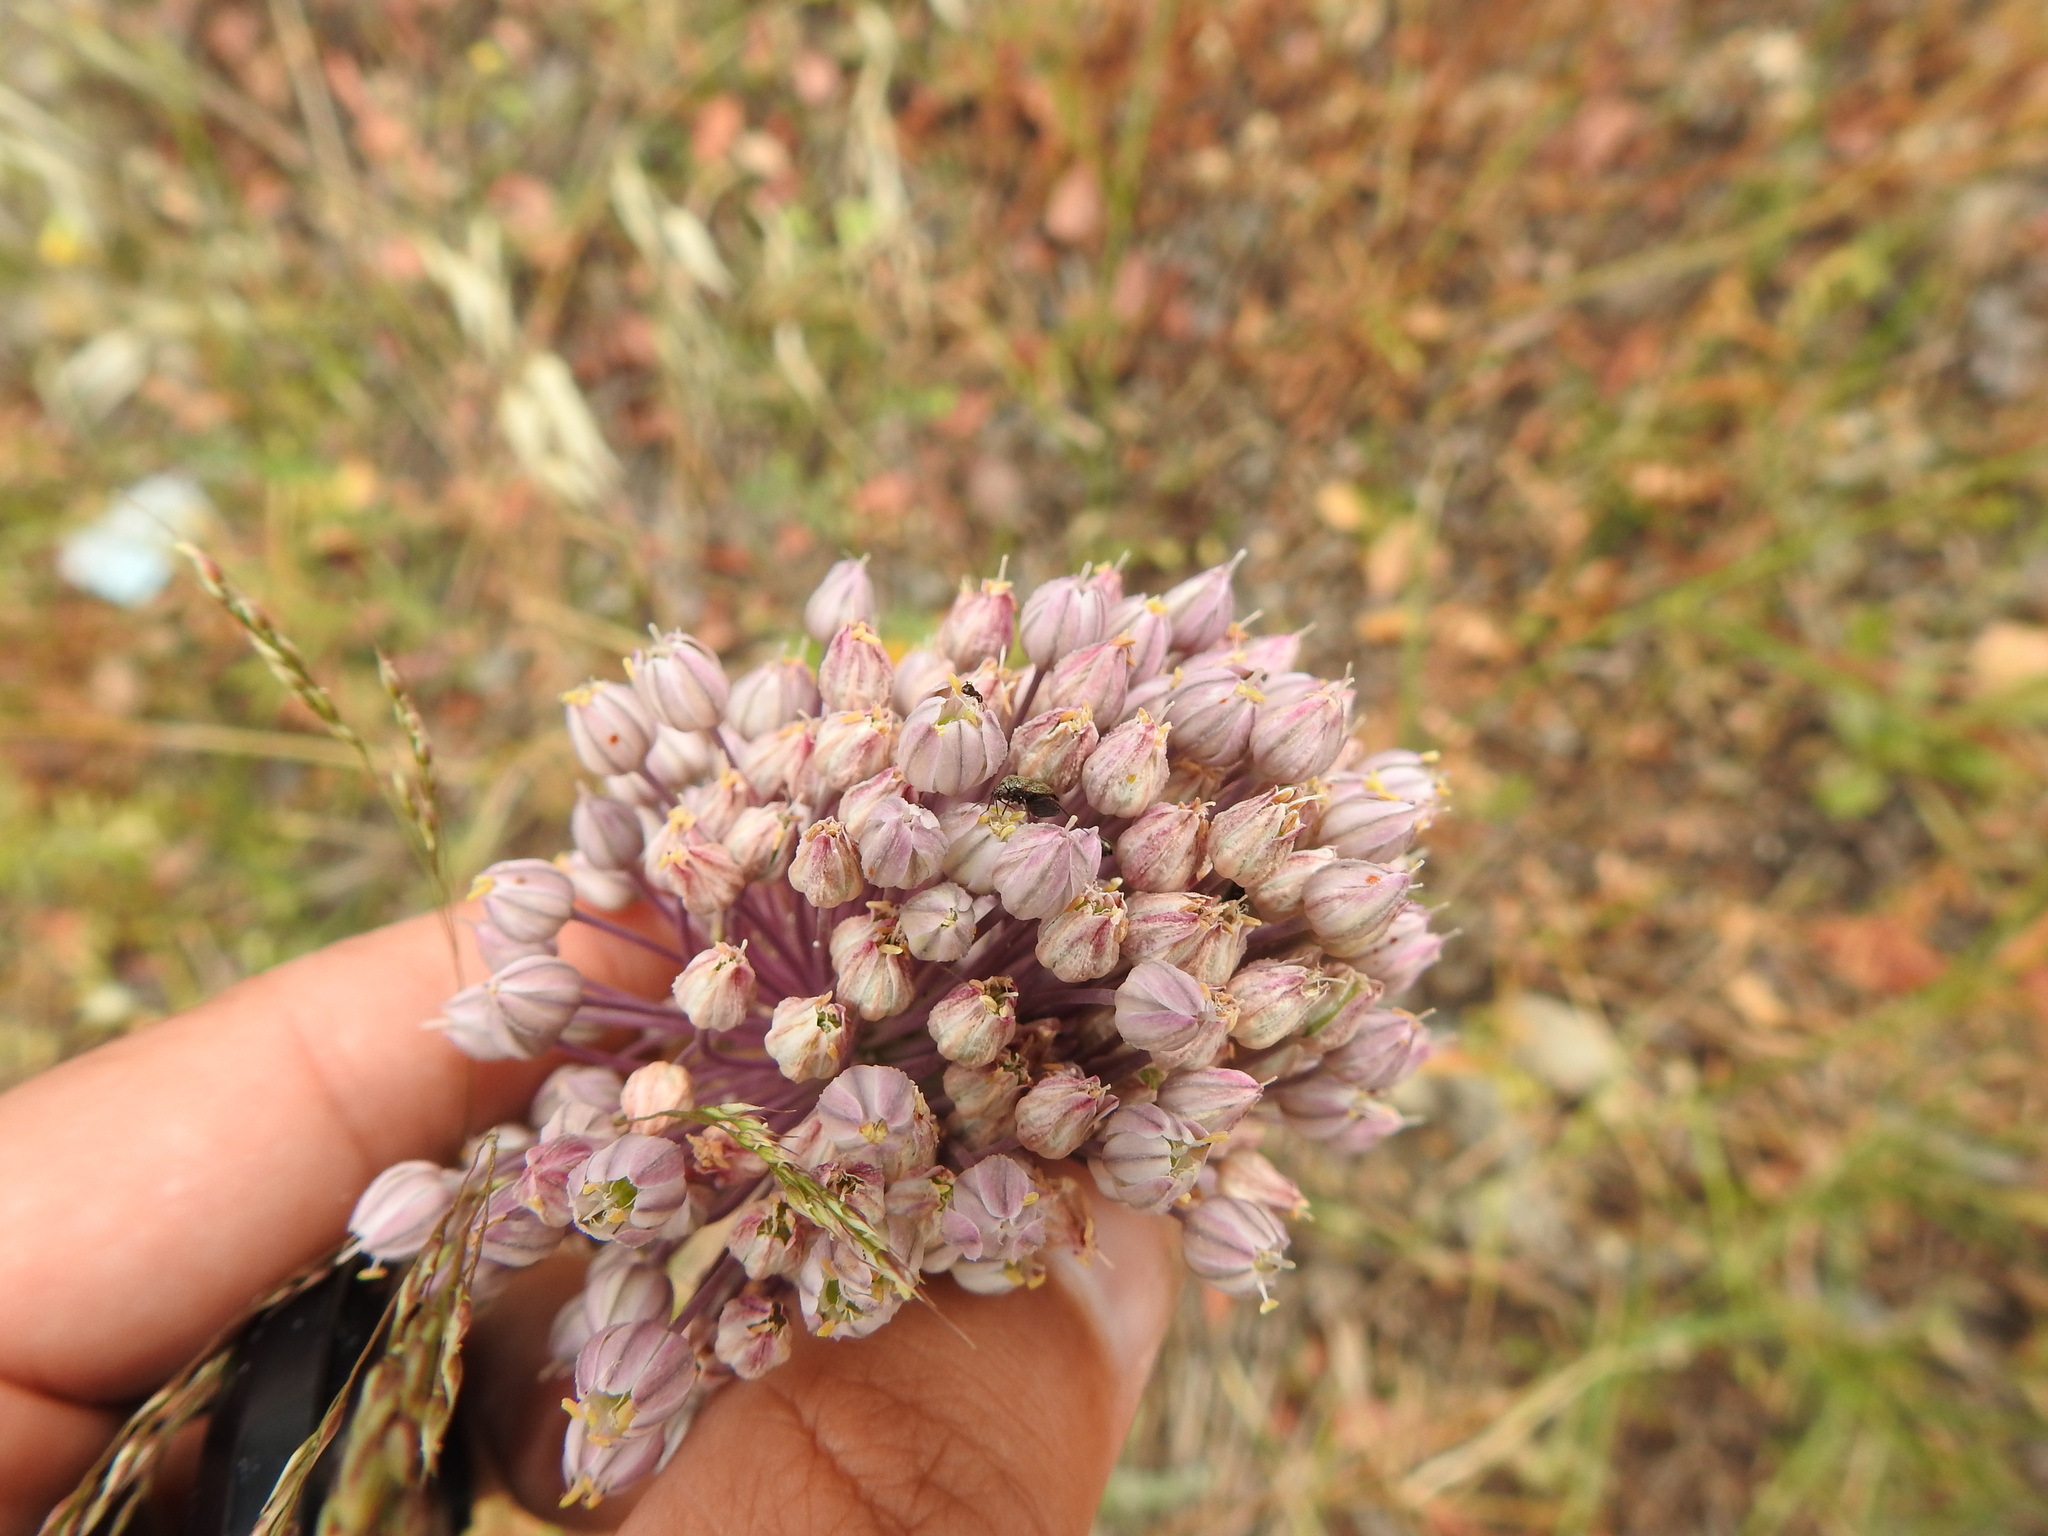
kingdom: Plantae
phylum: Tracheophyta
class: Liliopsida
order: Asparagales
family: Amaryllidaceae
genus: Allium
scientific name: Allium ampeloprasum
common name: Wild leek
